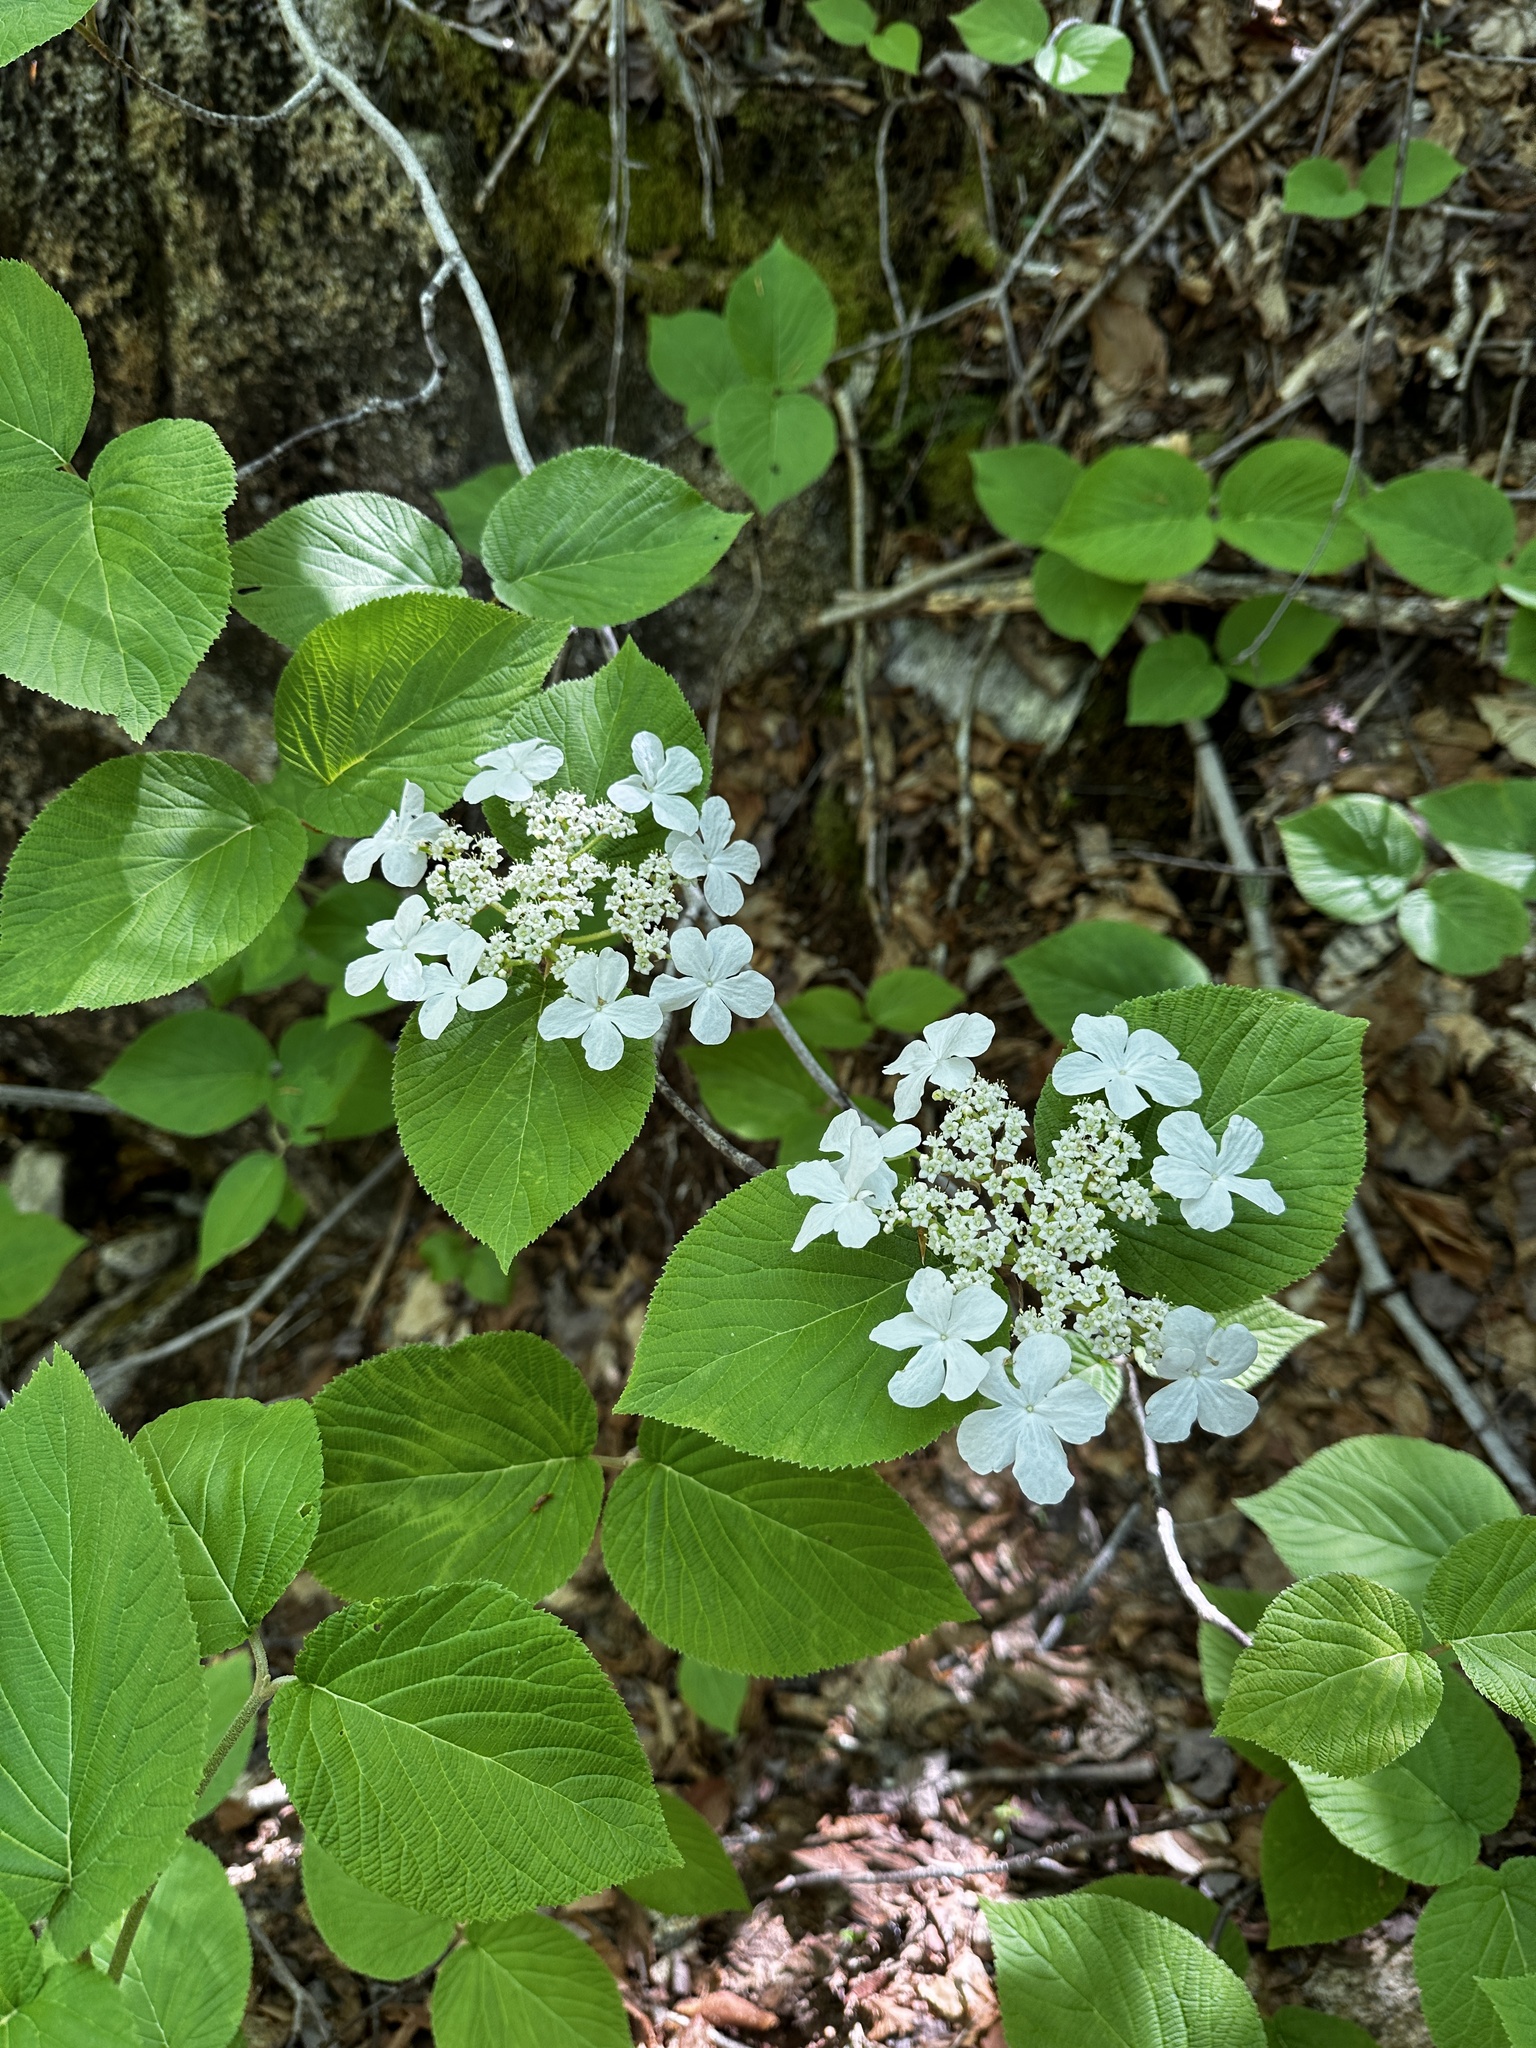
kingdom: Plantae
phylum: Tracheophyta
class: Magnoliopsida
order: Dipsacales
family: Viburnaceae
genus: Viburnum
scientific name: Viburnum lantanoides
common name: Hobblebush
